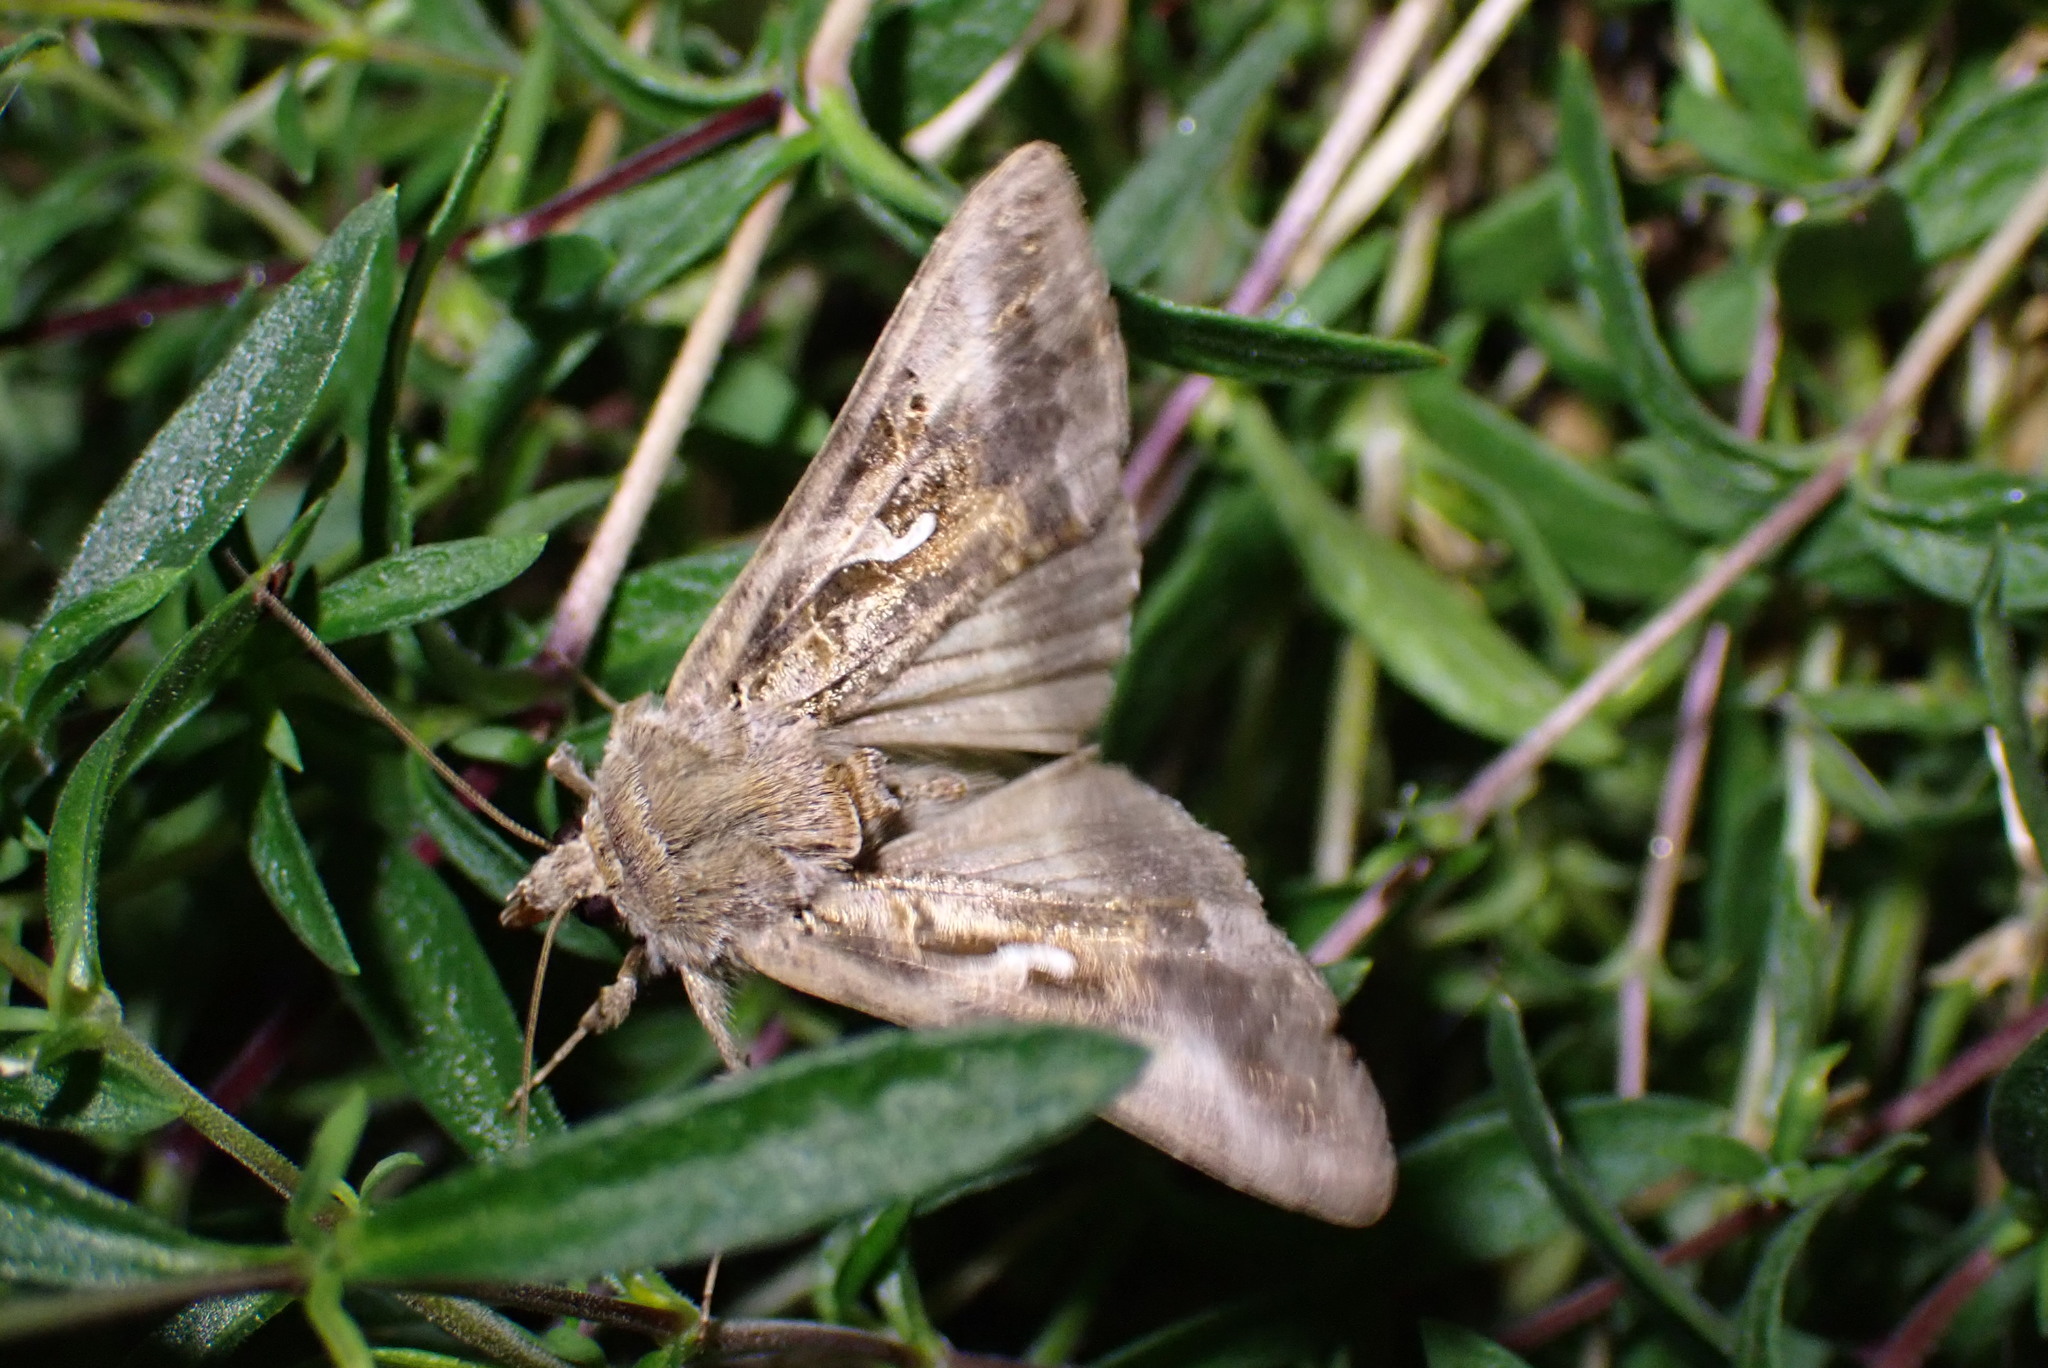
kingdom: Animalia
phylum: Arthropoda
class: Insecta
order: Lepidoptera
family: Noctuidae
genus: Autographa
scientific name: Autographa gamma
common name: Silver y
